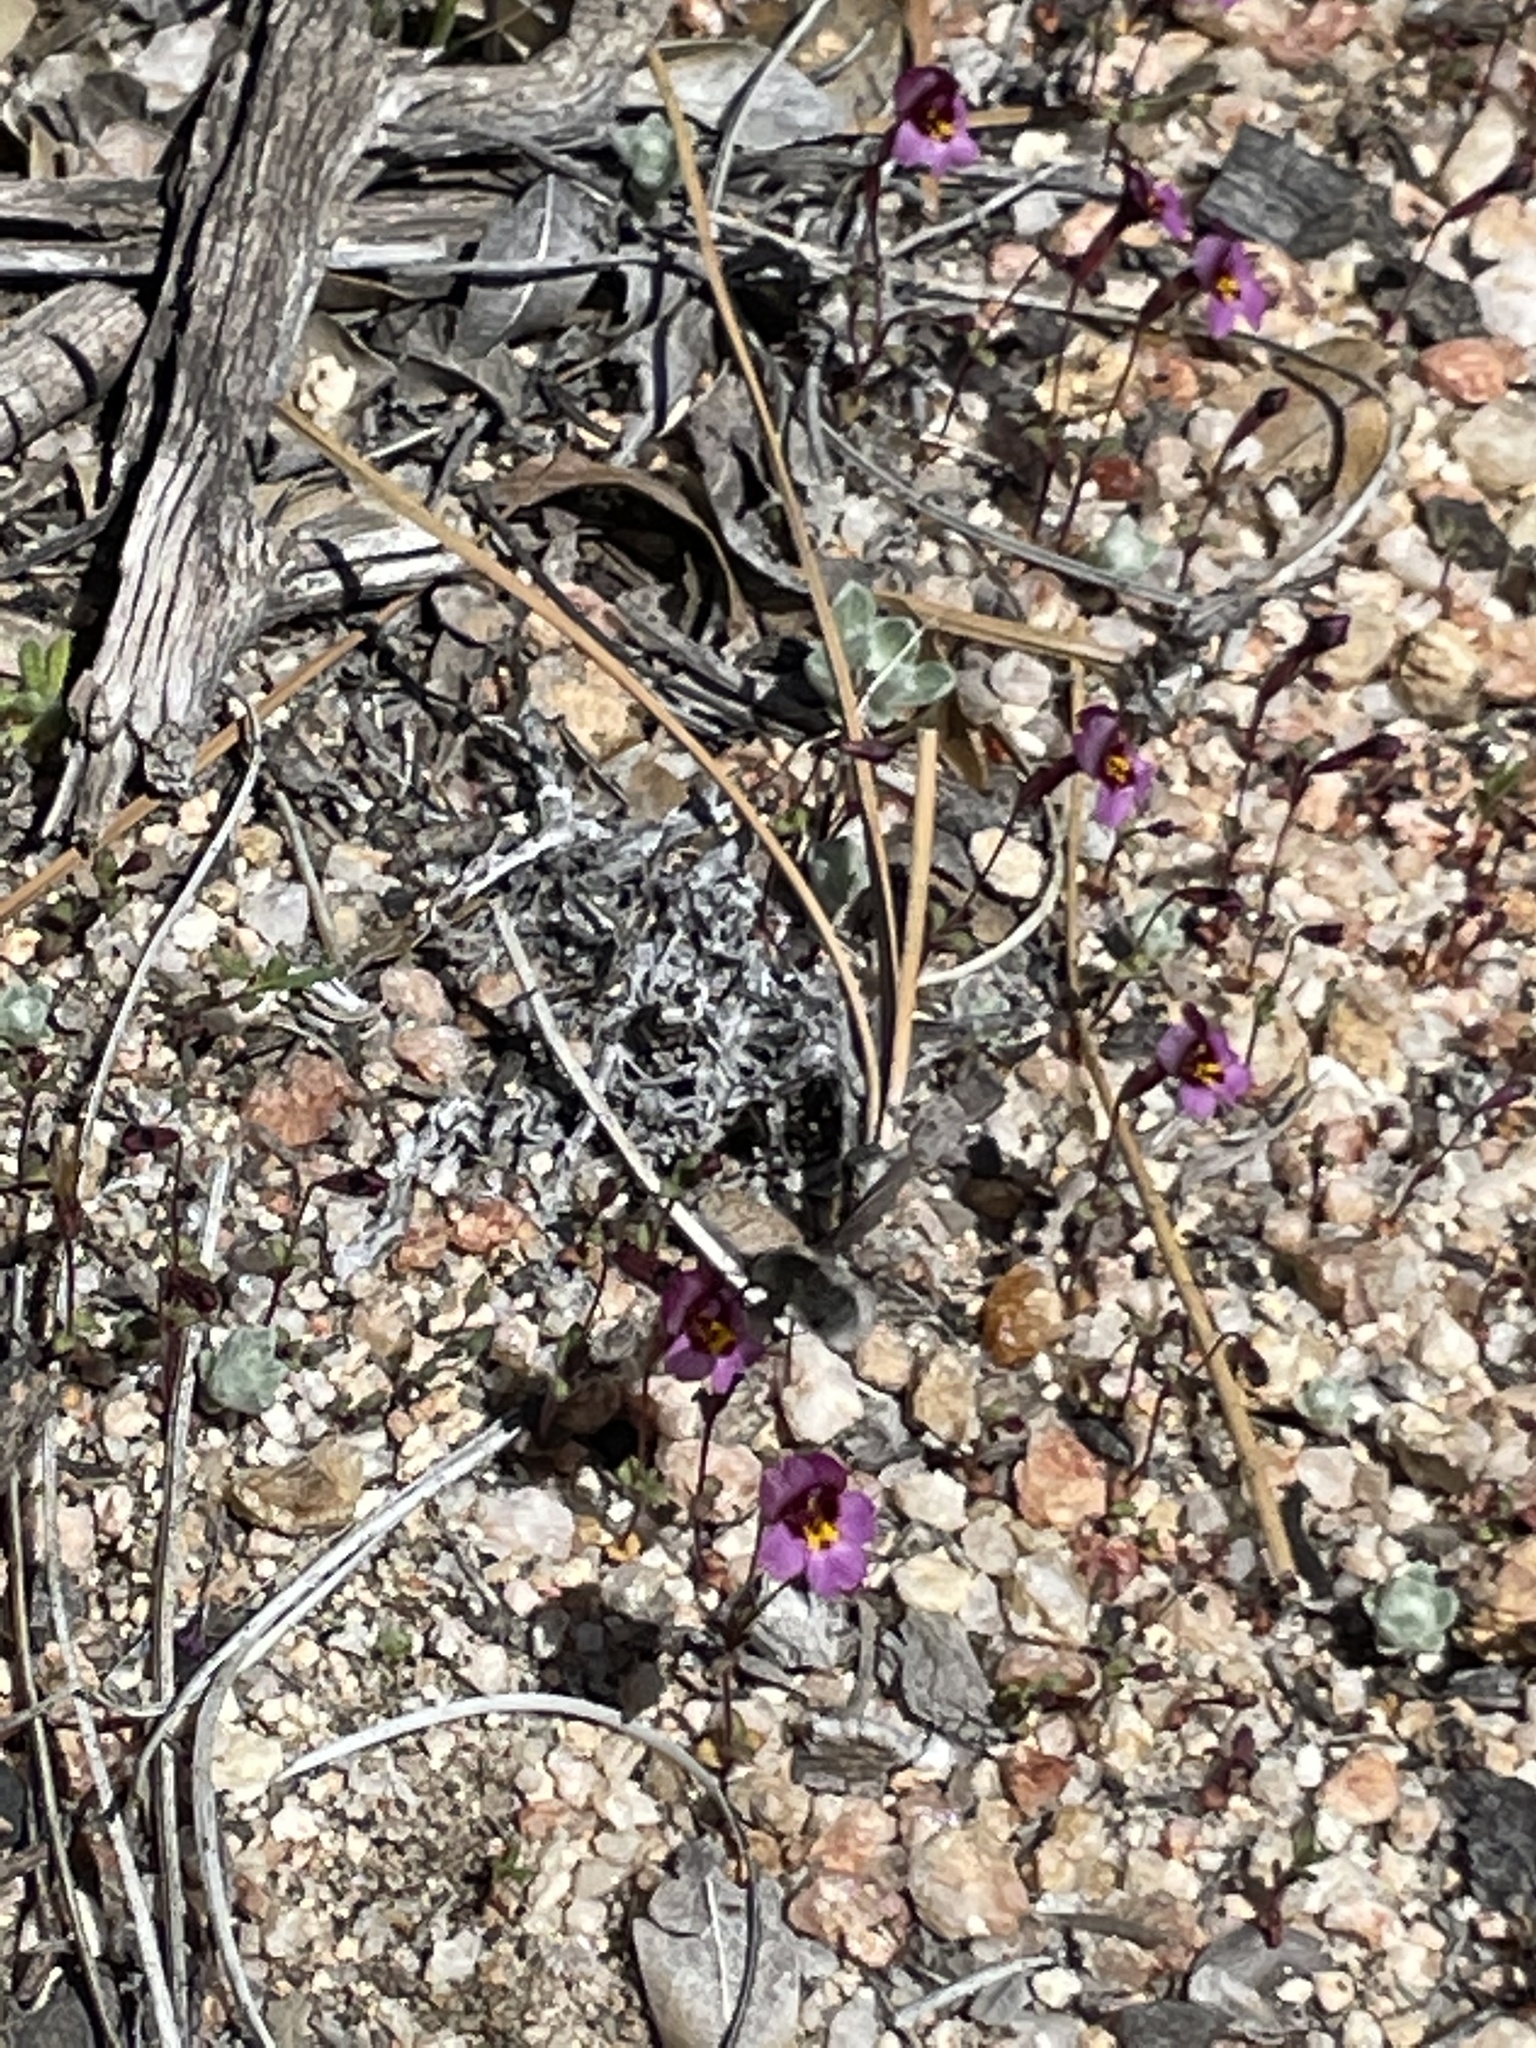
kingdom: Plantae
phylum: Tracheophyta
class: Magnoliopsida
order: Lamiales
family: Phrymaceae
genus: Erythranthe
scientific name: Erythranthe purpurea
